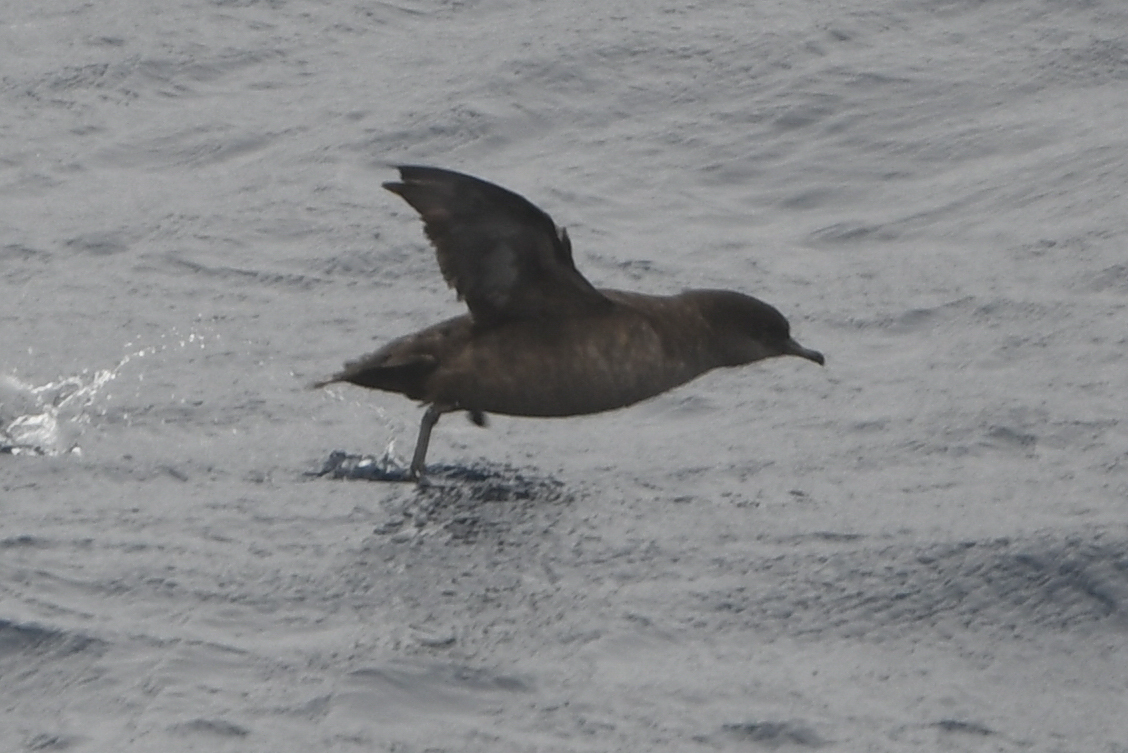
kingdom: Animalia
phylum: Chordata
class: Aves
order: Procellariiformes
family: Procellariidae
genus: Puffinus
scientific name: Puffinus tenuirostris
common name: Short-tailed shearwater
